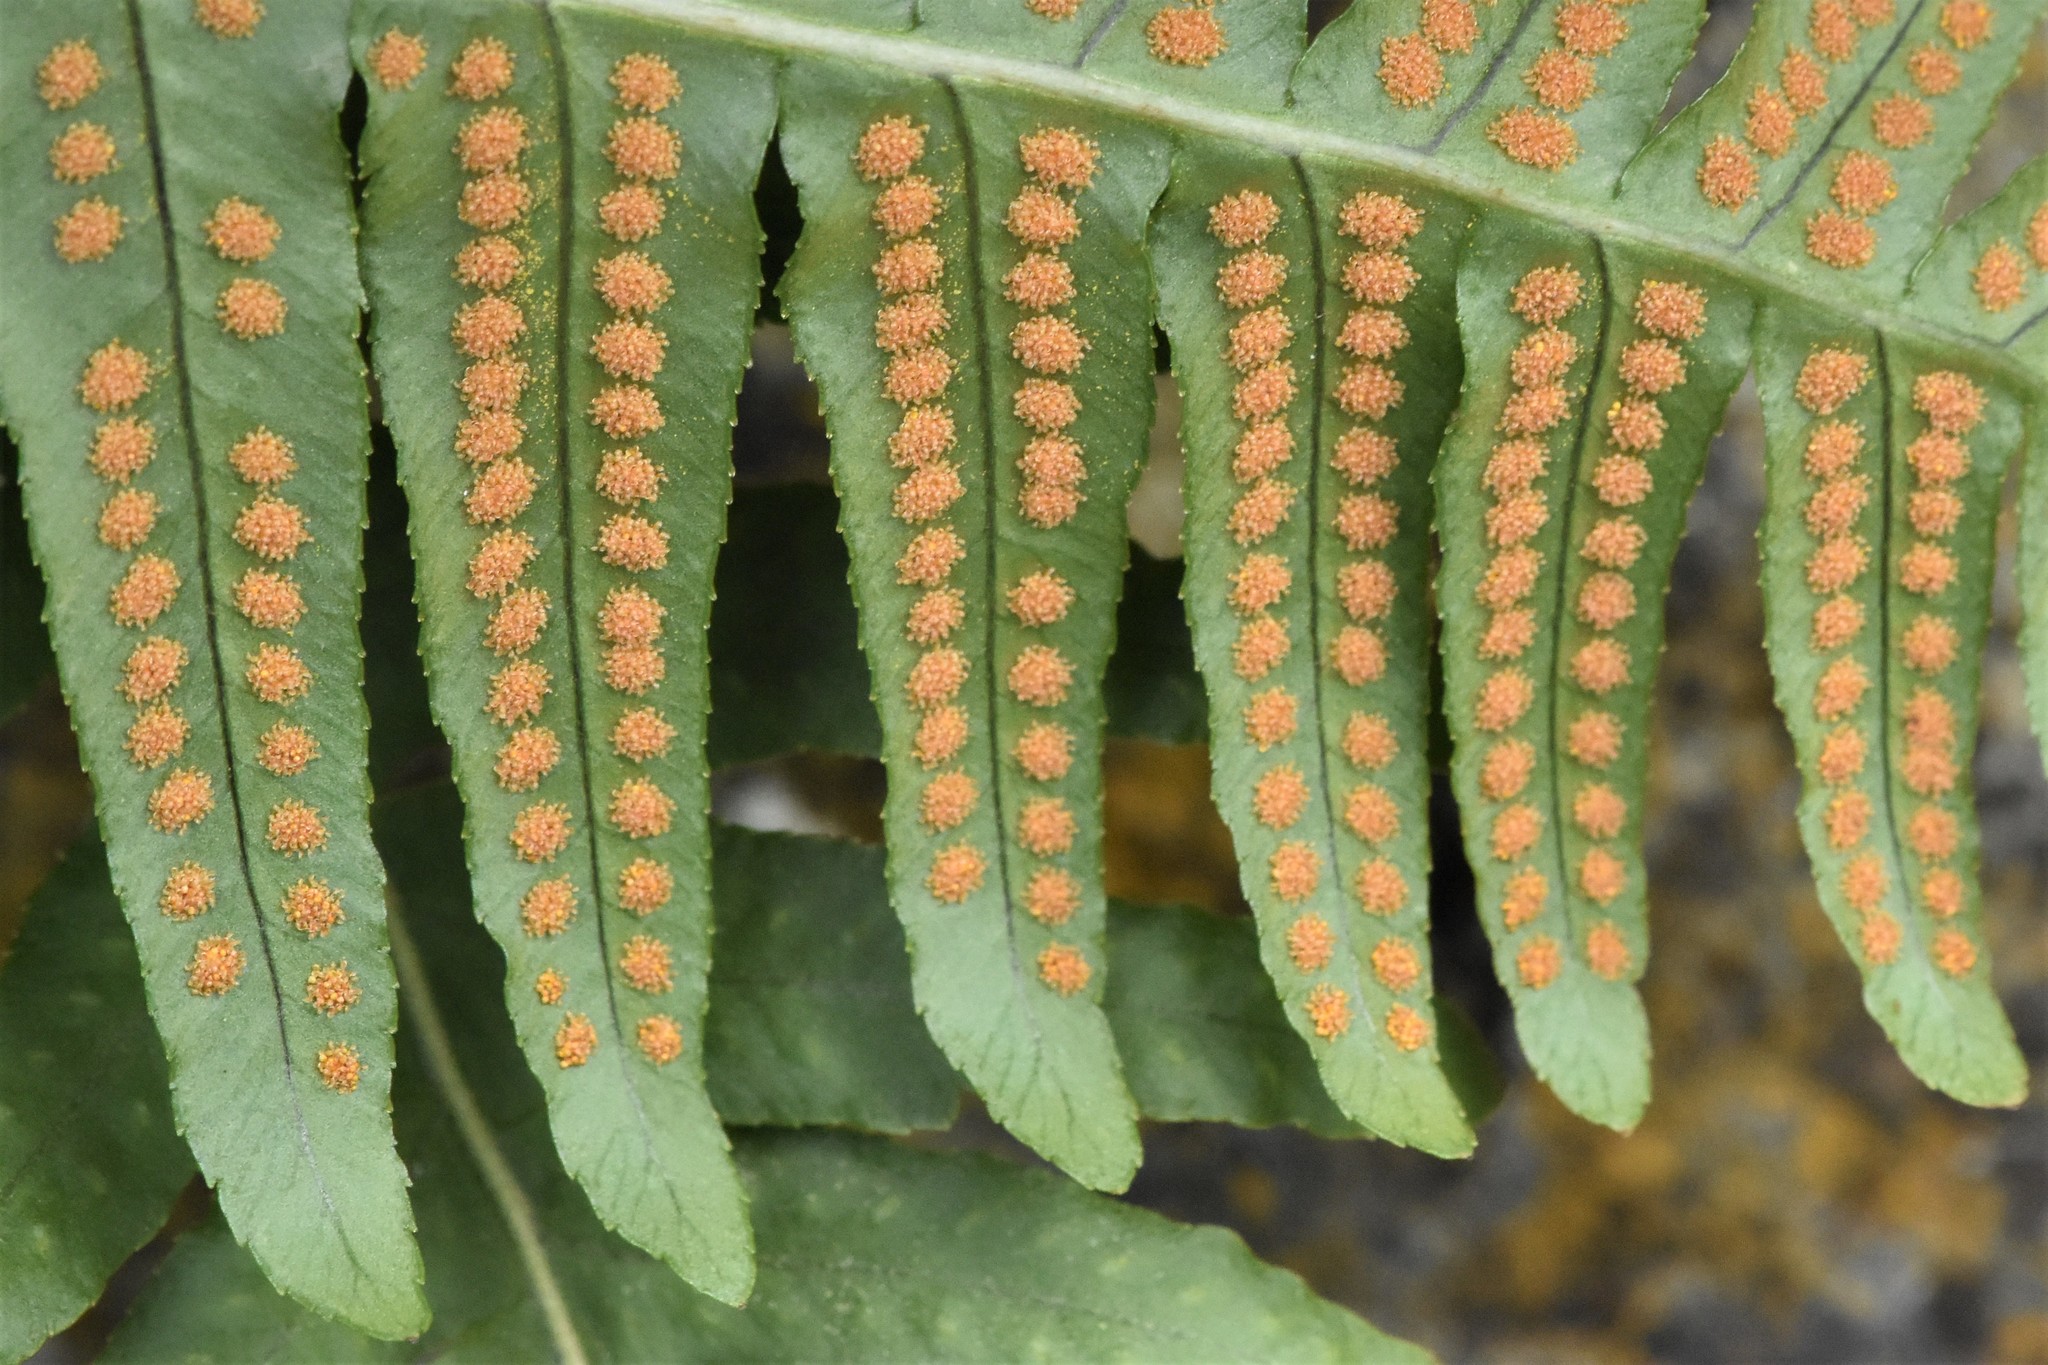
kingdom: Plantae
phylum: Tracheophyta
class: Polypodiopsida
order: Polypodiales
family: Polypodiaceae
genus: Polypodium
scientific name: Polypodium glycyrrhiza
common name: Licorice fern
